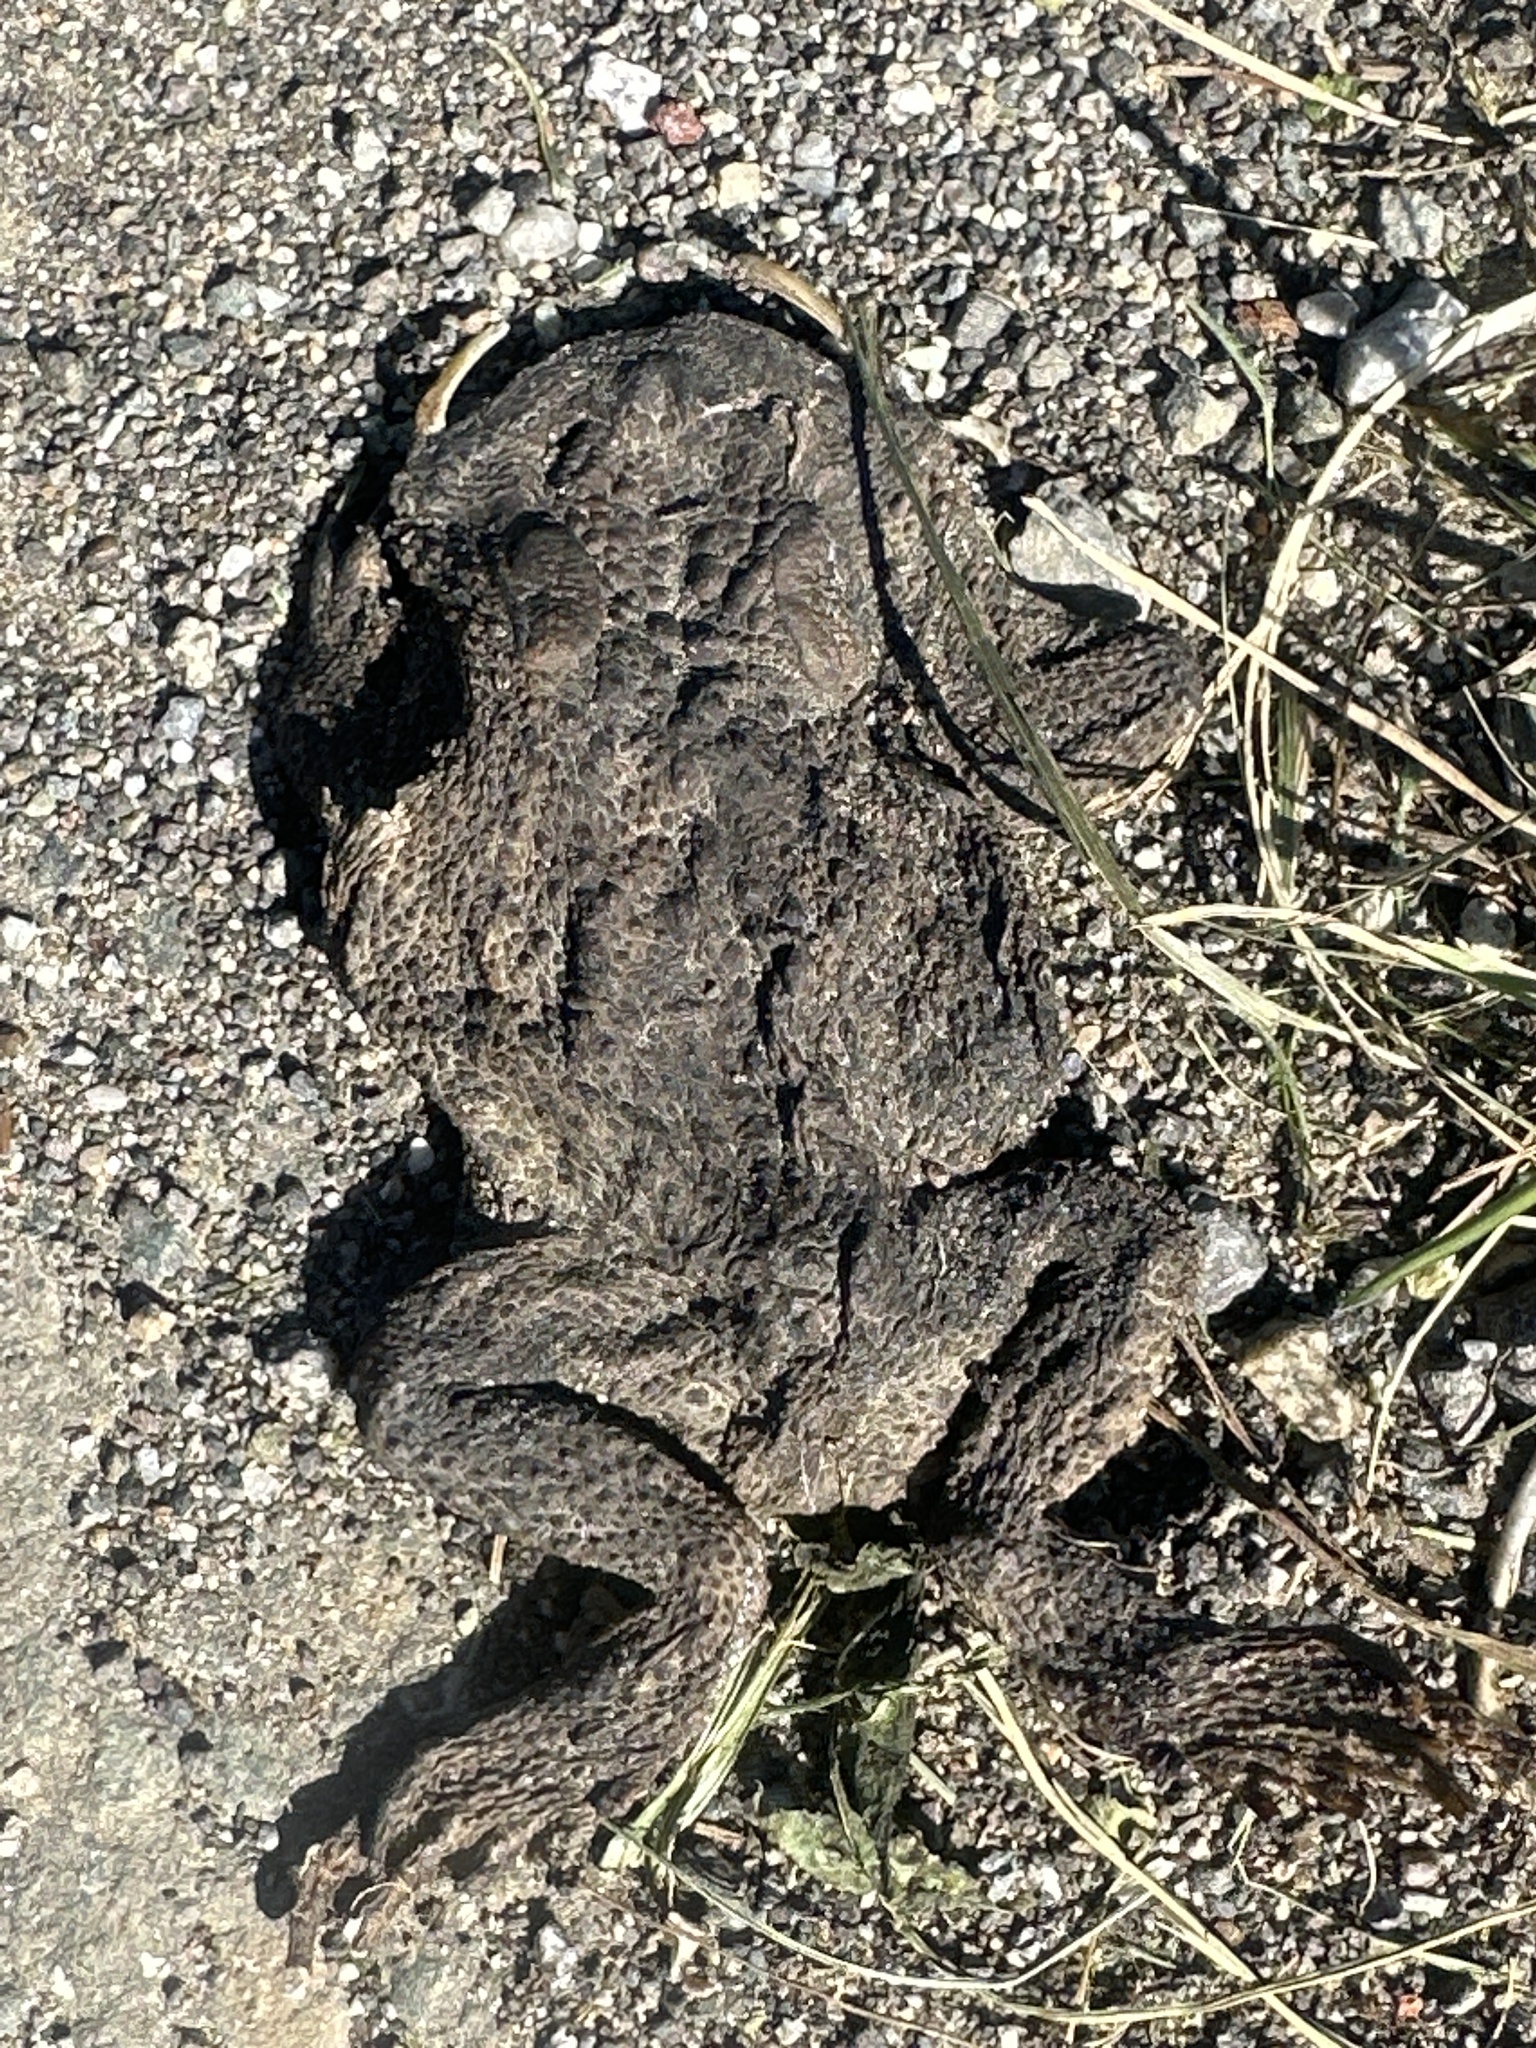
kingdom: Animalia
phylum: Chordata
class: Amphibia
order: Anura
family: Bufonidae
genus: Bufo
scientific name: Bufo bufo
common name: Common toad
